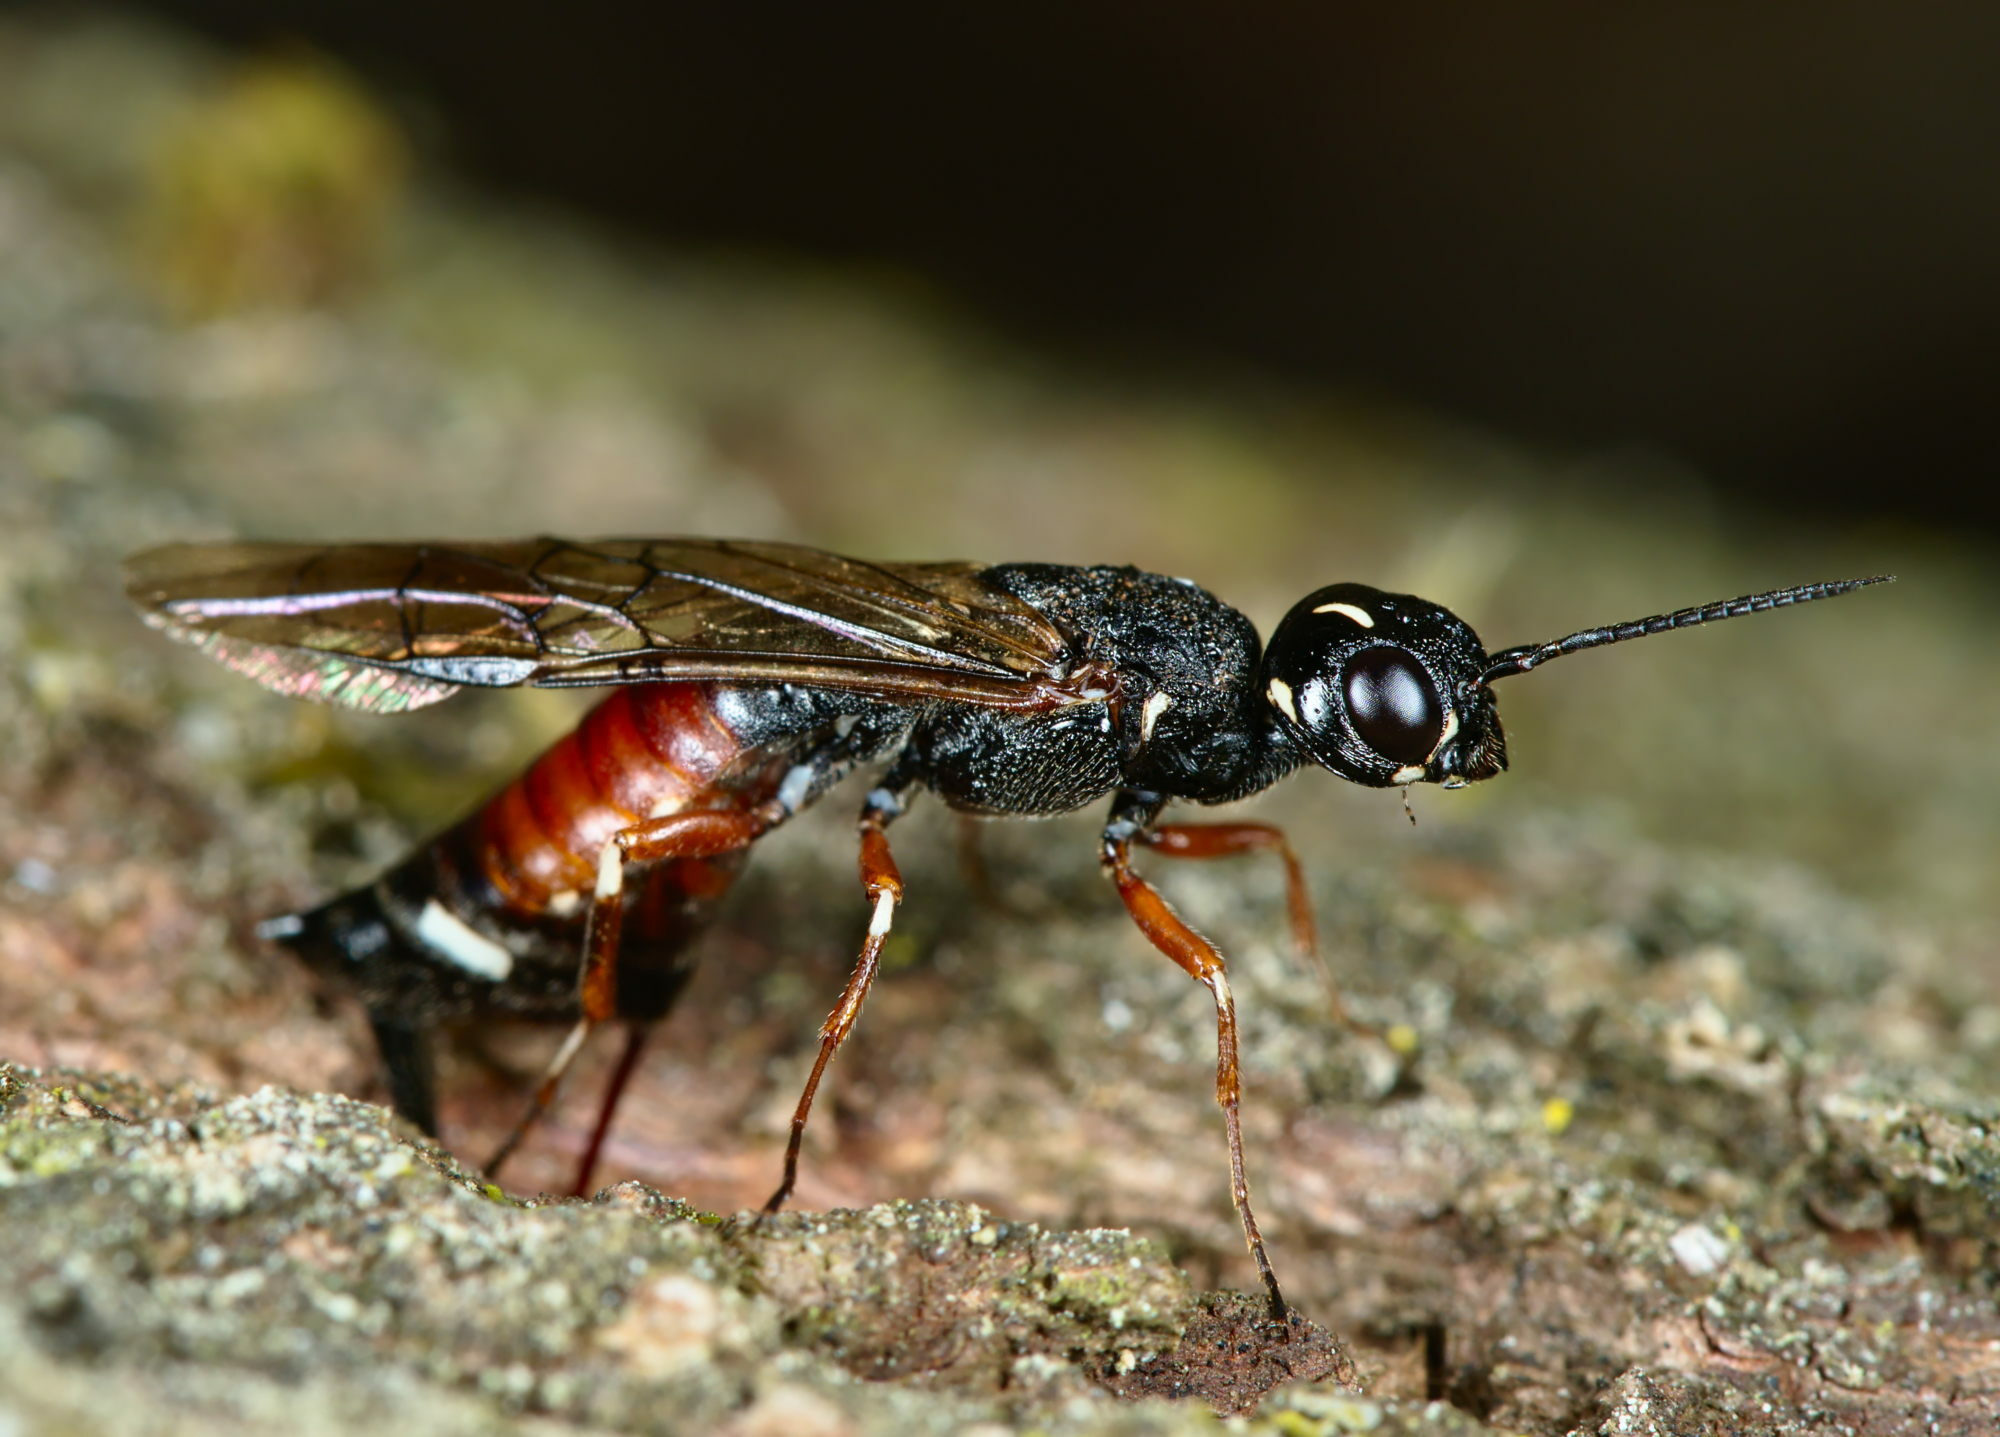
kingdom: Animalia
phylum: Arthropoda
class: Insecta
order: Hymenoptera
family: Xiphydriidae
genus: Xiphydria
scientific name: Xiphydria prolongata
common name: Wasp
